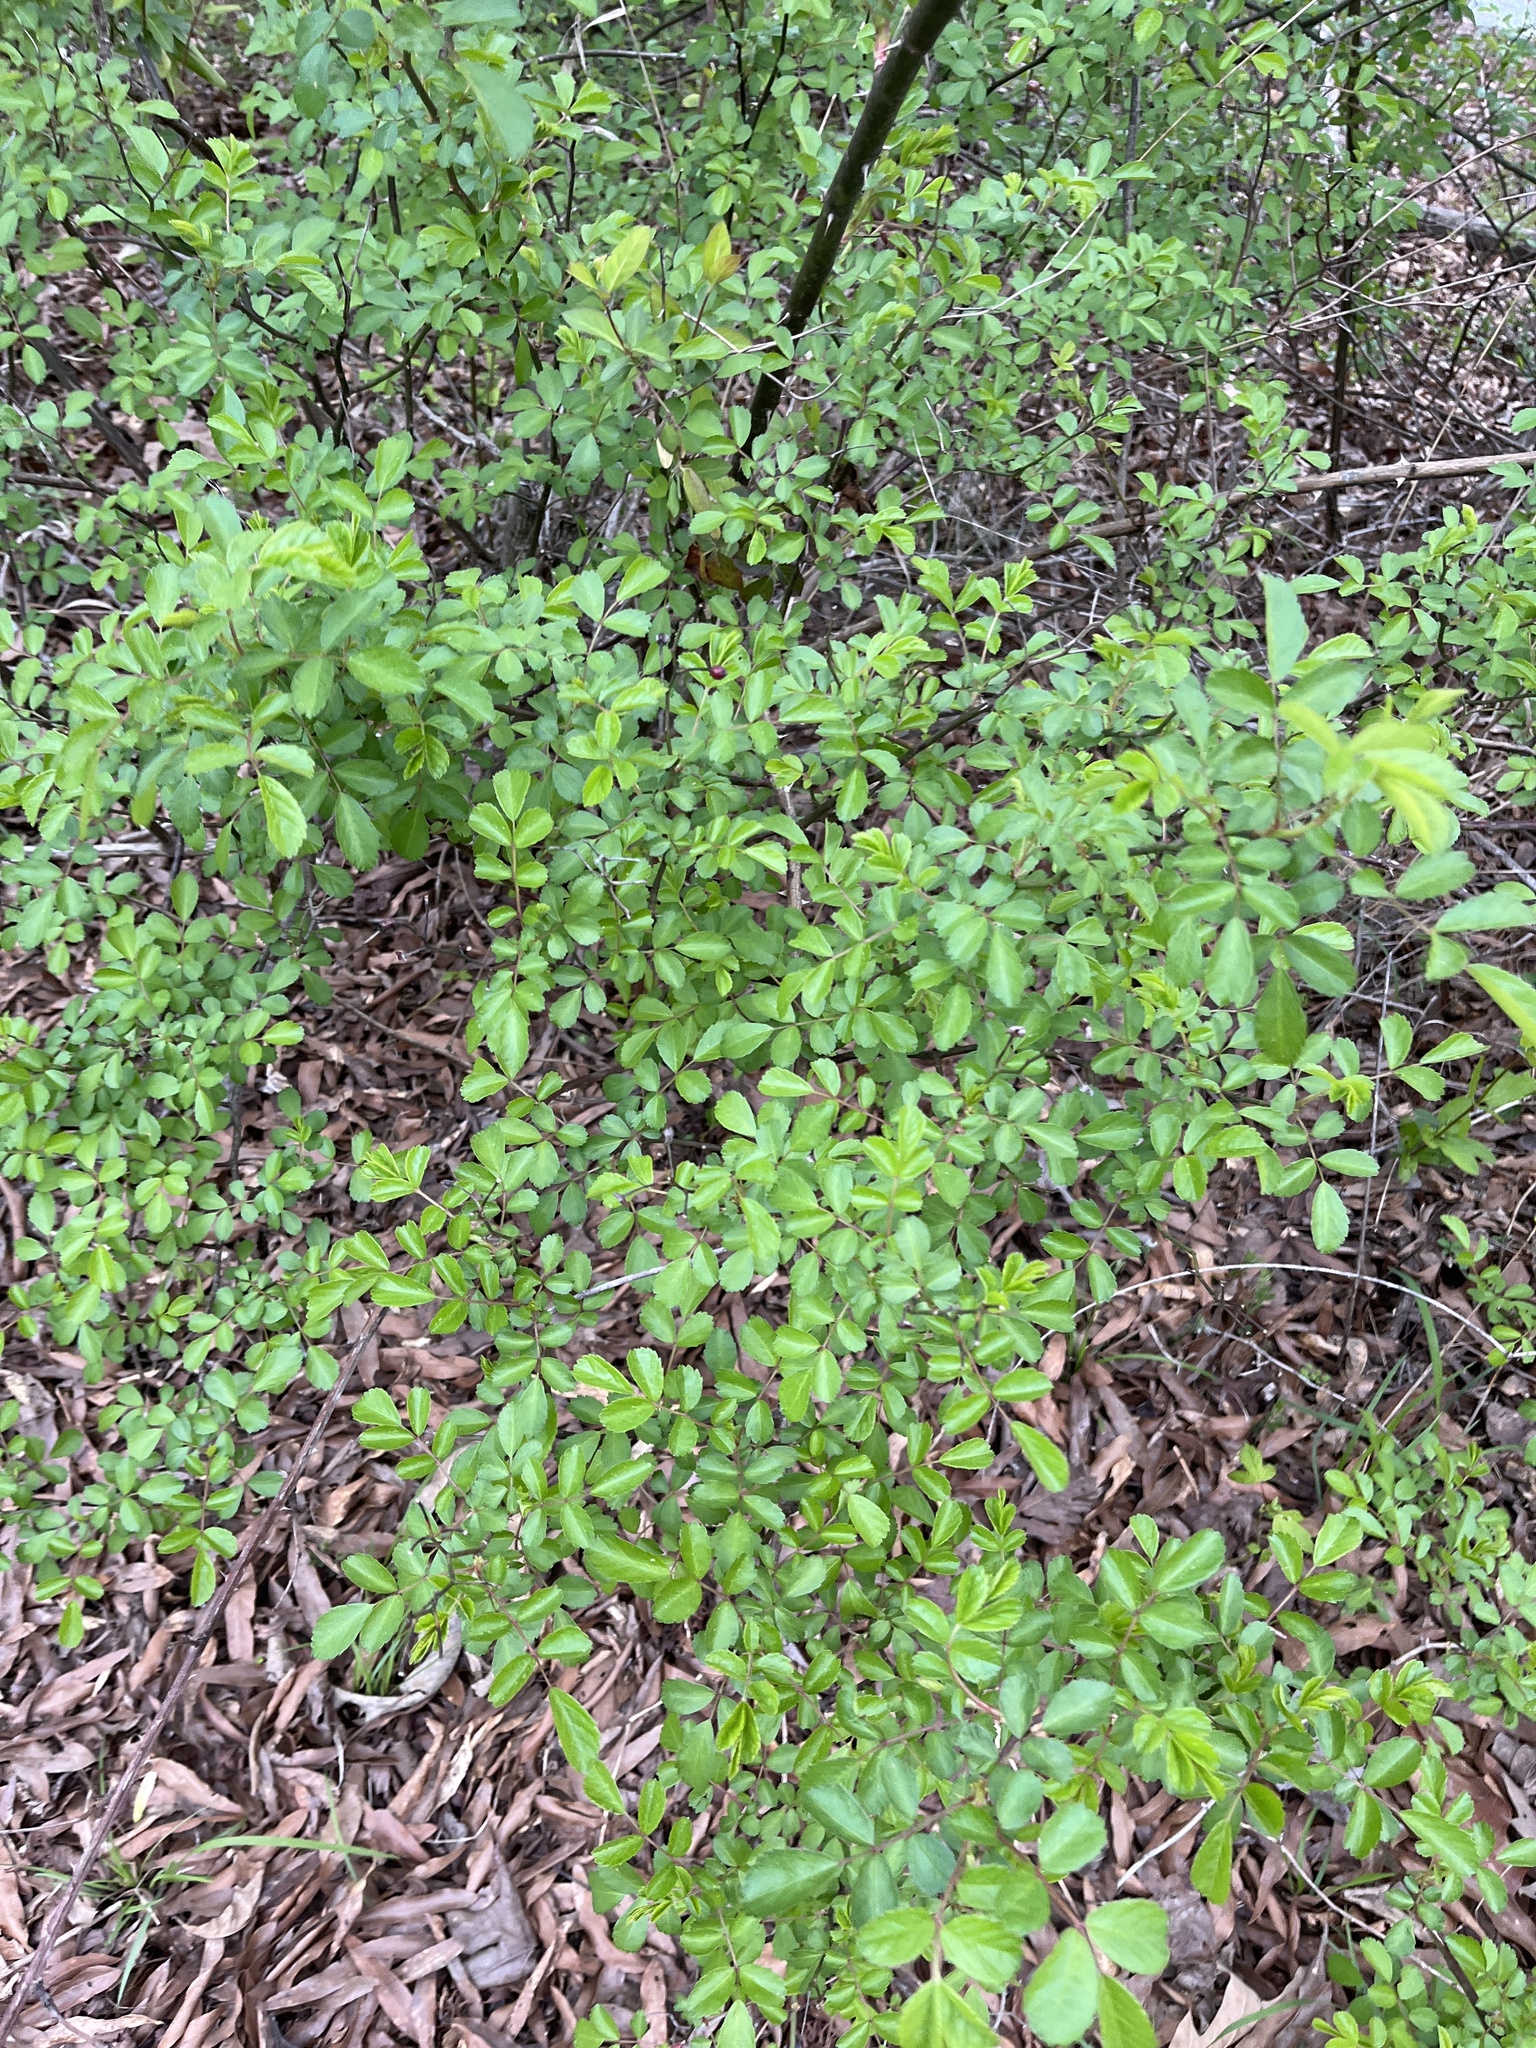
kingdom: Plantae
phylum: Tracheophyta
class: Magnoliopsida
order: Rosales
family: Rosaceae
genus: Rosa
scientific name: Rosa multiflora
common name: Multiflora rose
